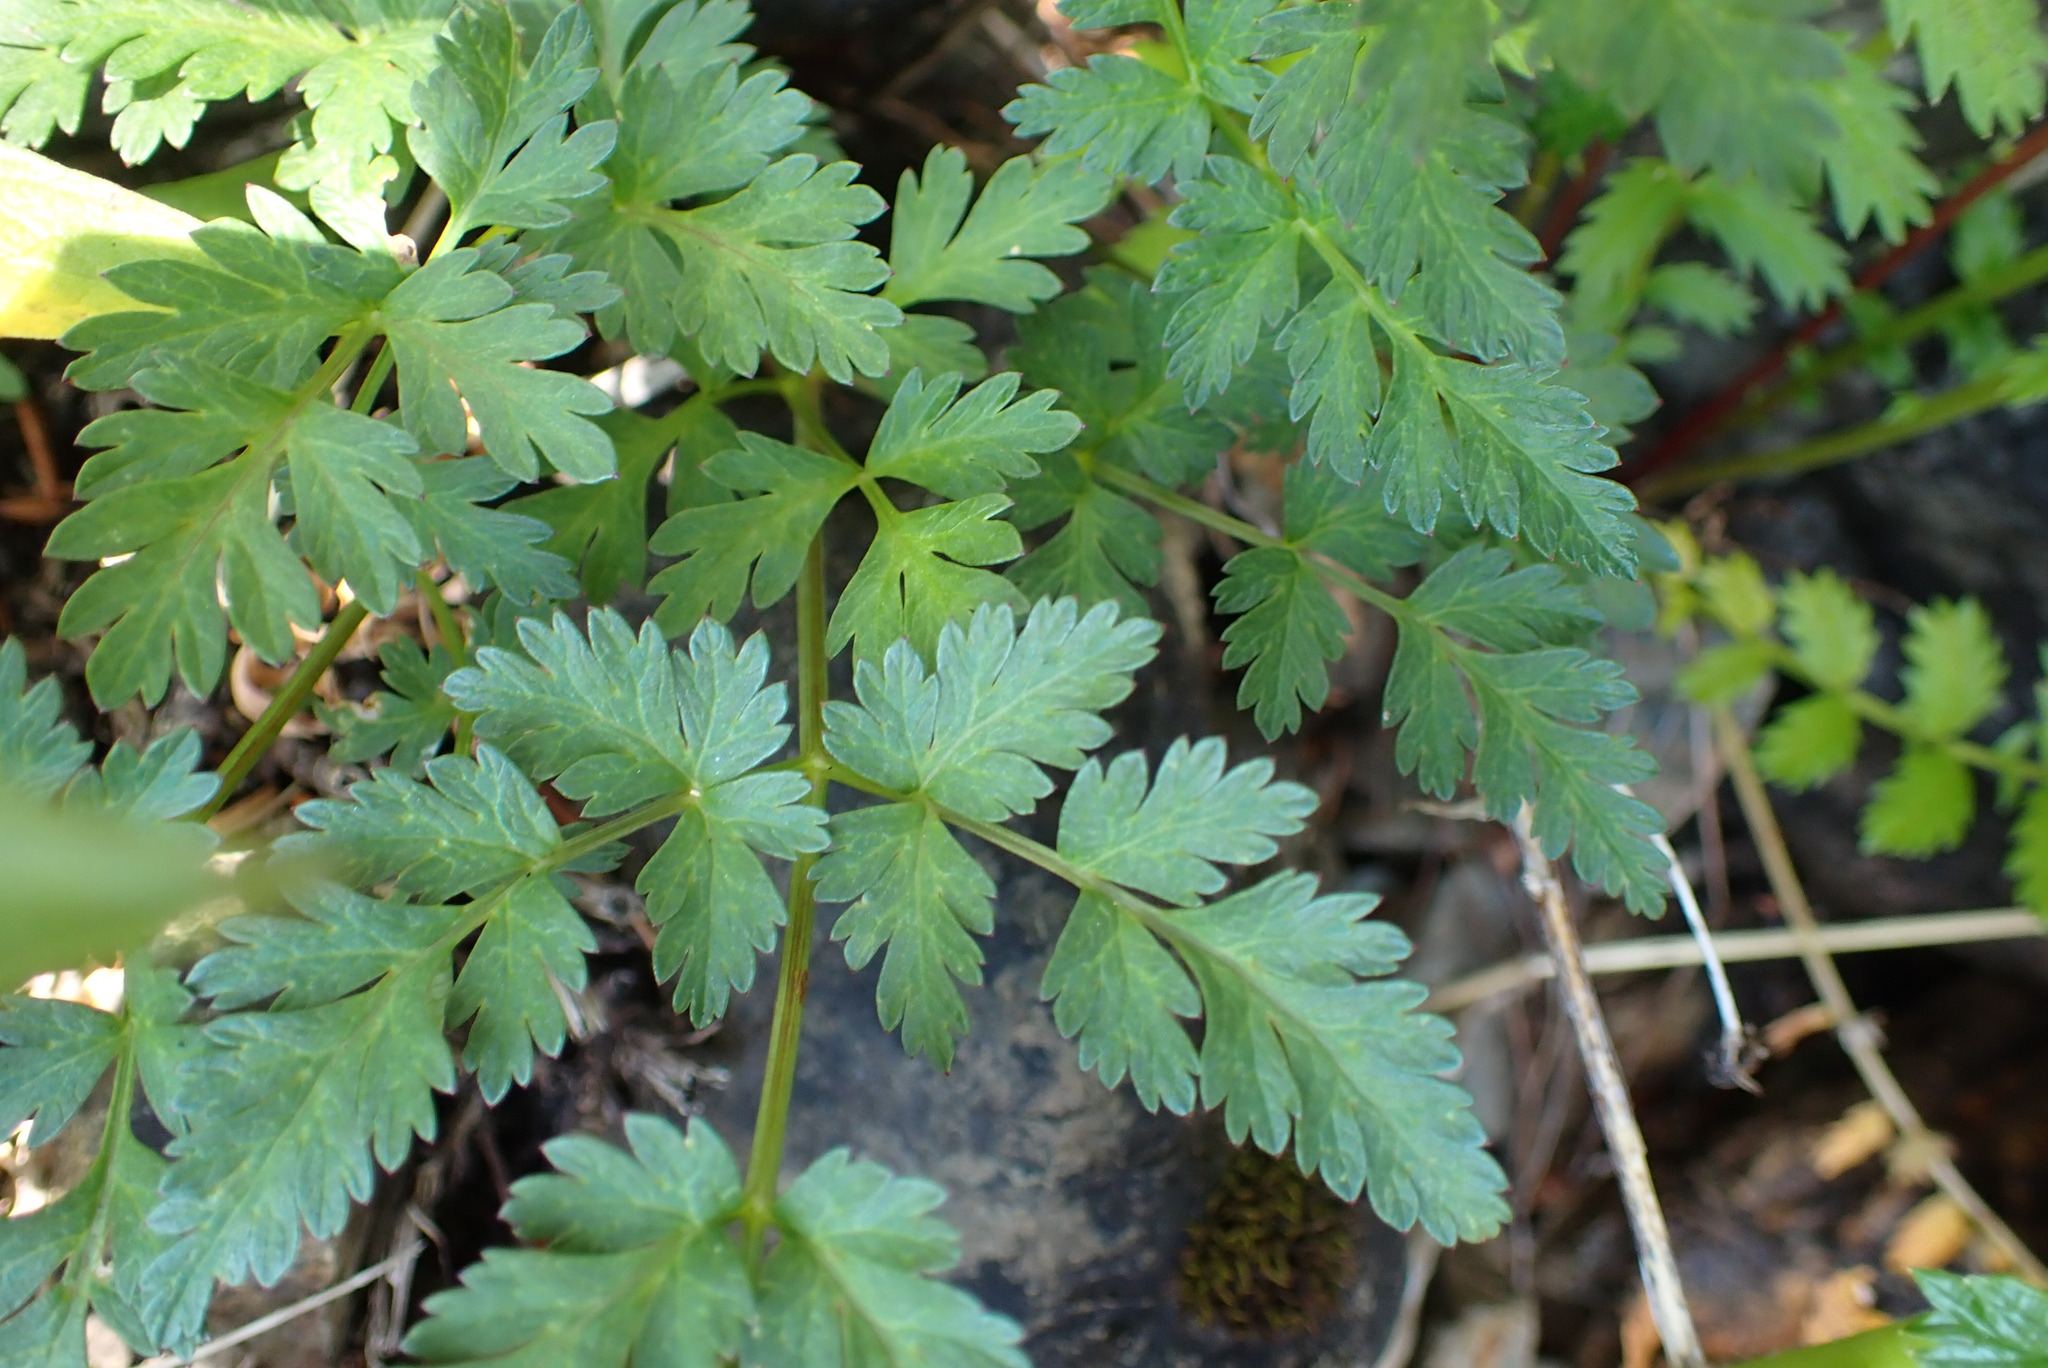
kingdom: Plantae
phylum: Tracheophyta
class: Magnoliopsida
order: Apiales
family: Apiaceae
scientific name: Apiaceae
